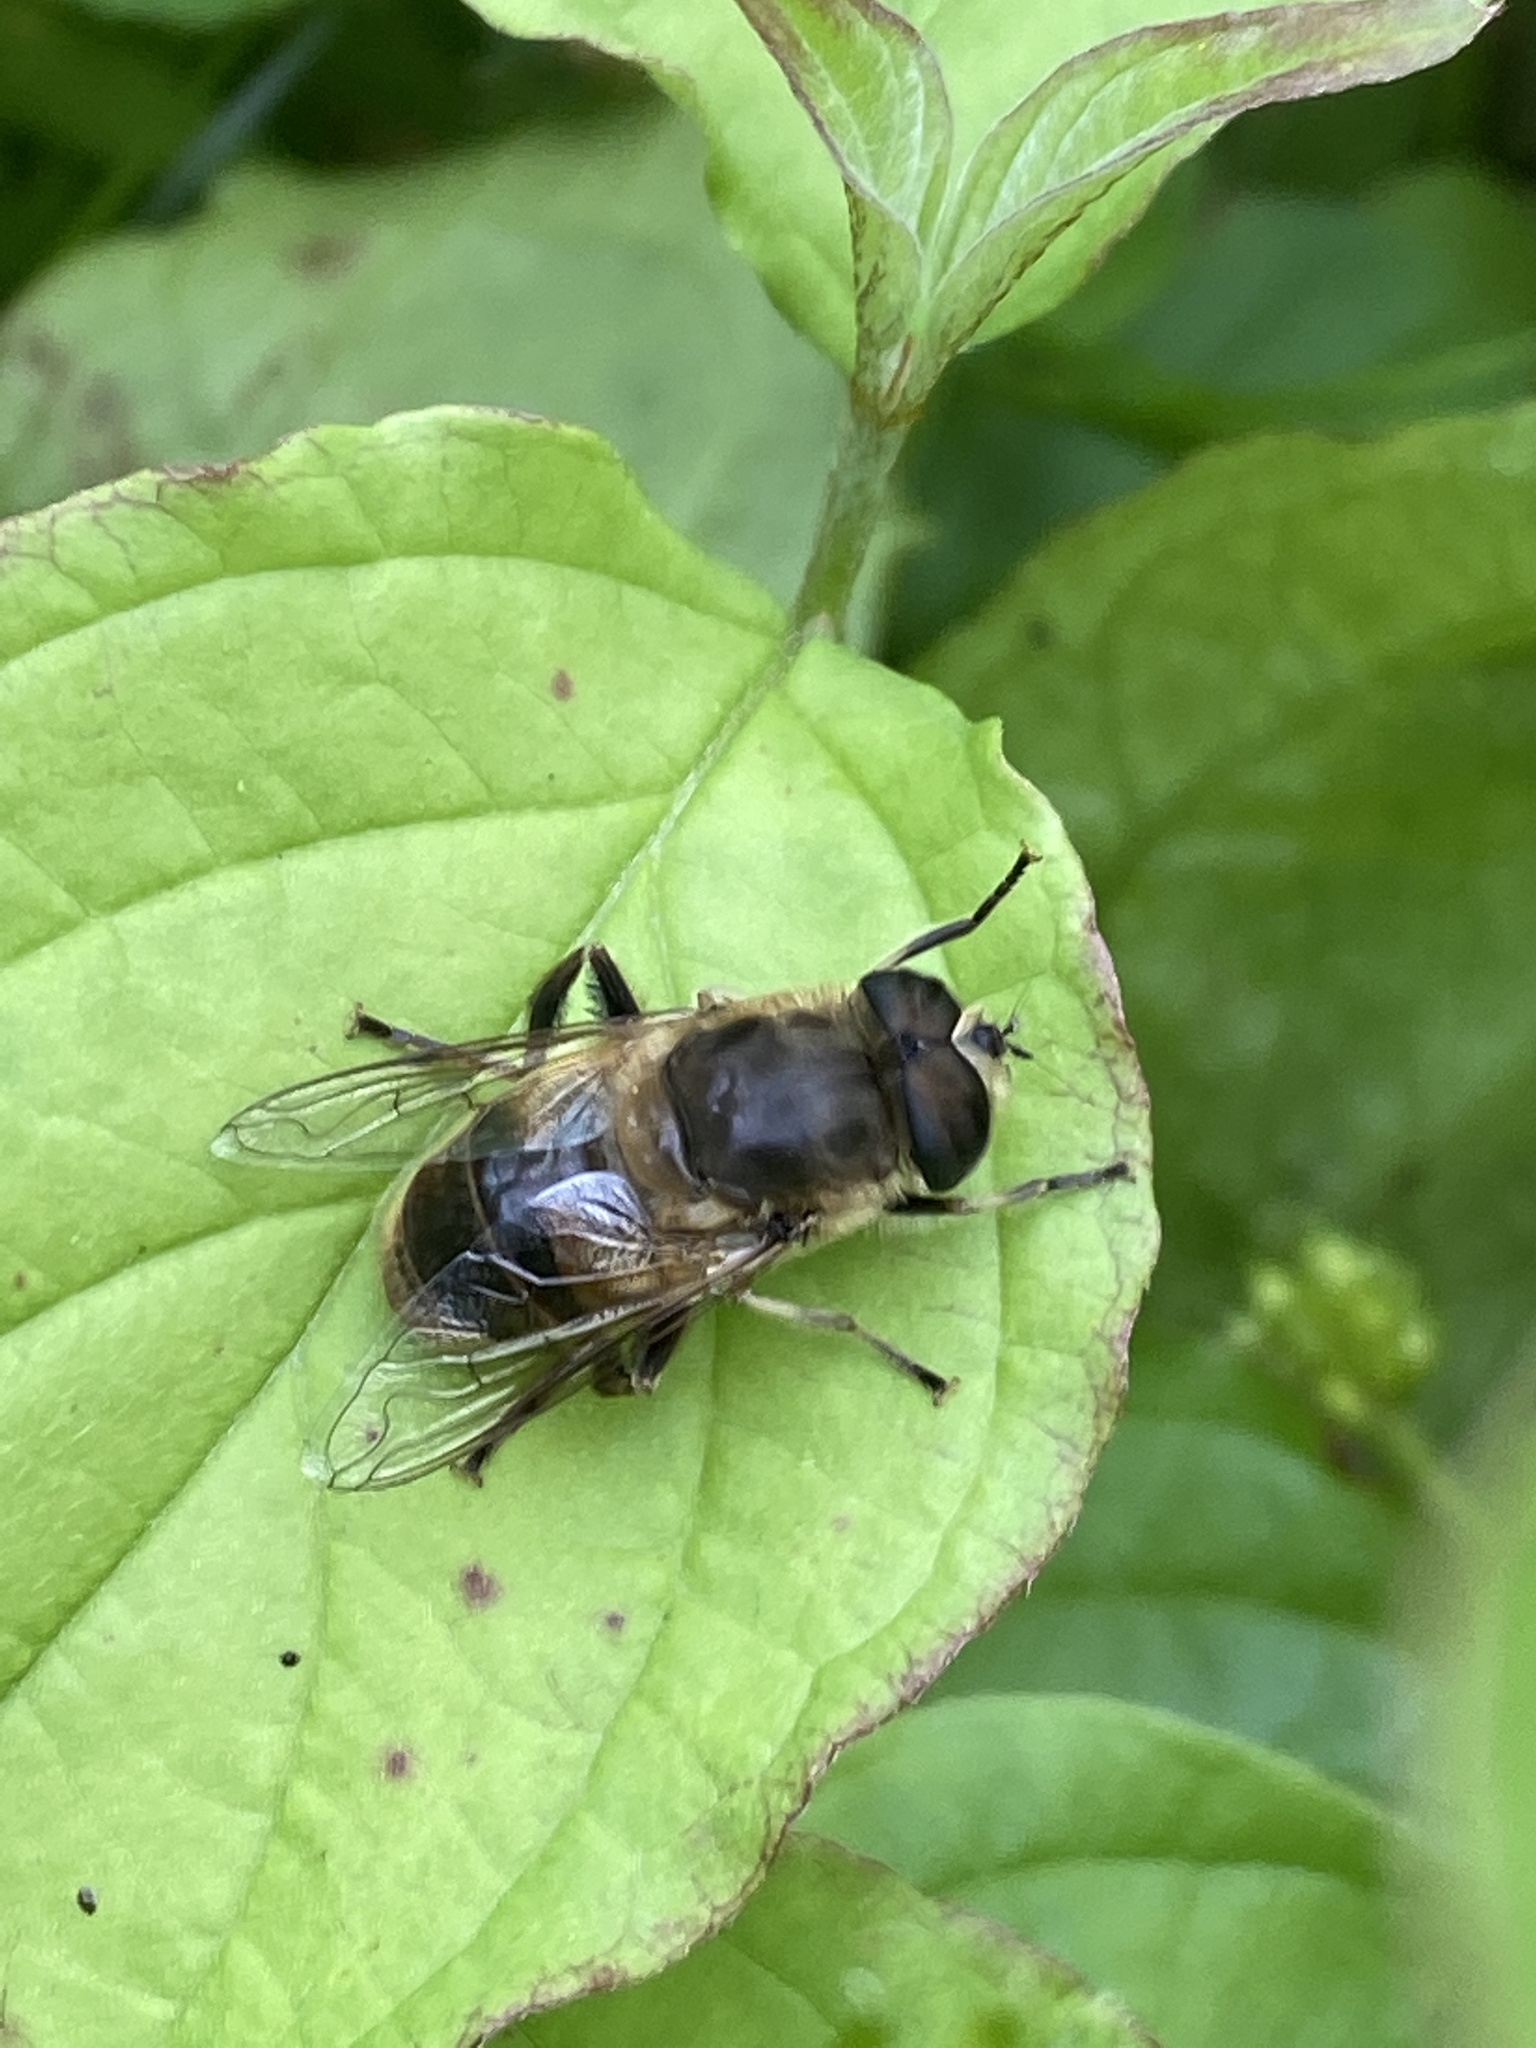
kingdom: Animalia
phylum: Arthropoda
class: Insecta
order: Diptera
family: Syrphidae
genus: Eristalis
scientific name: Eristalis tenax
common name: Drone fly
